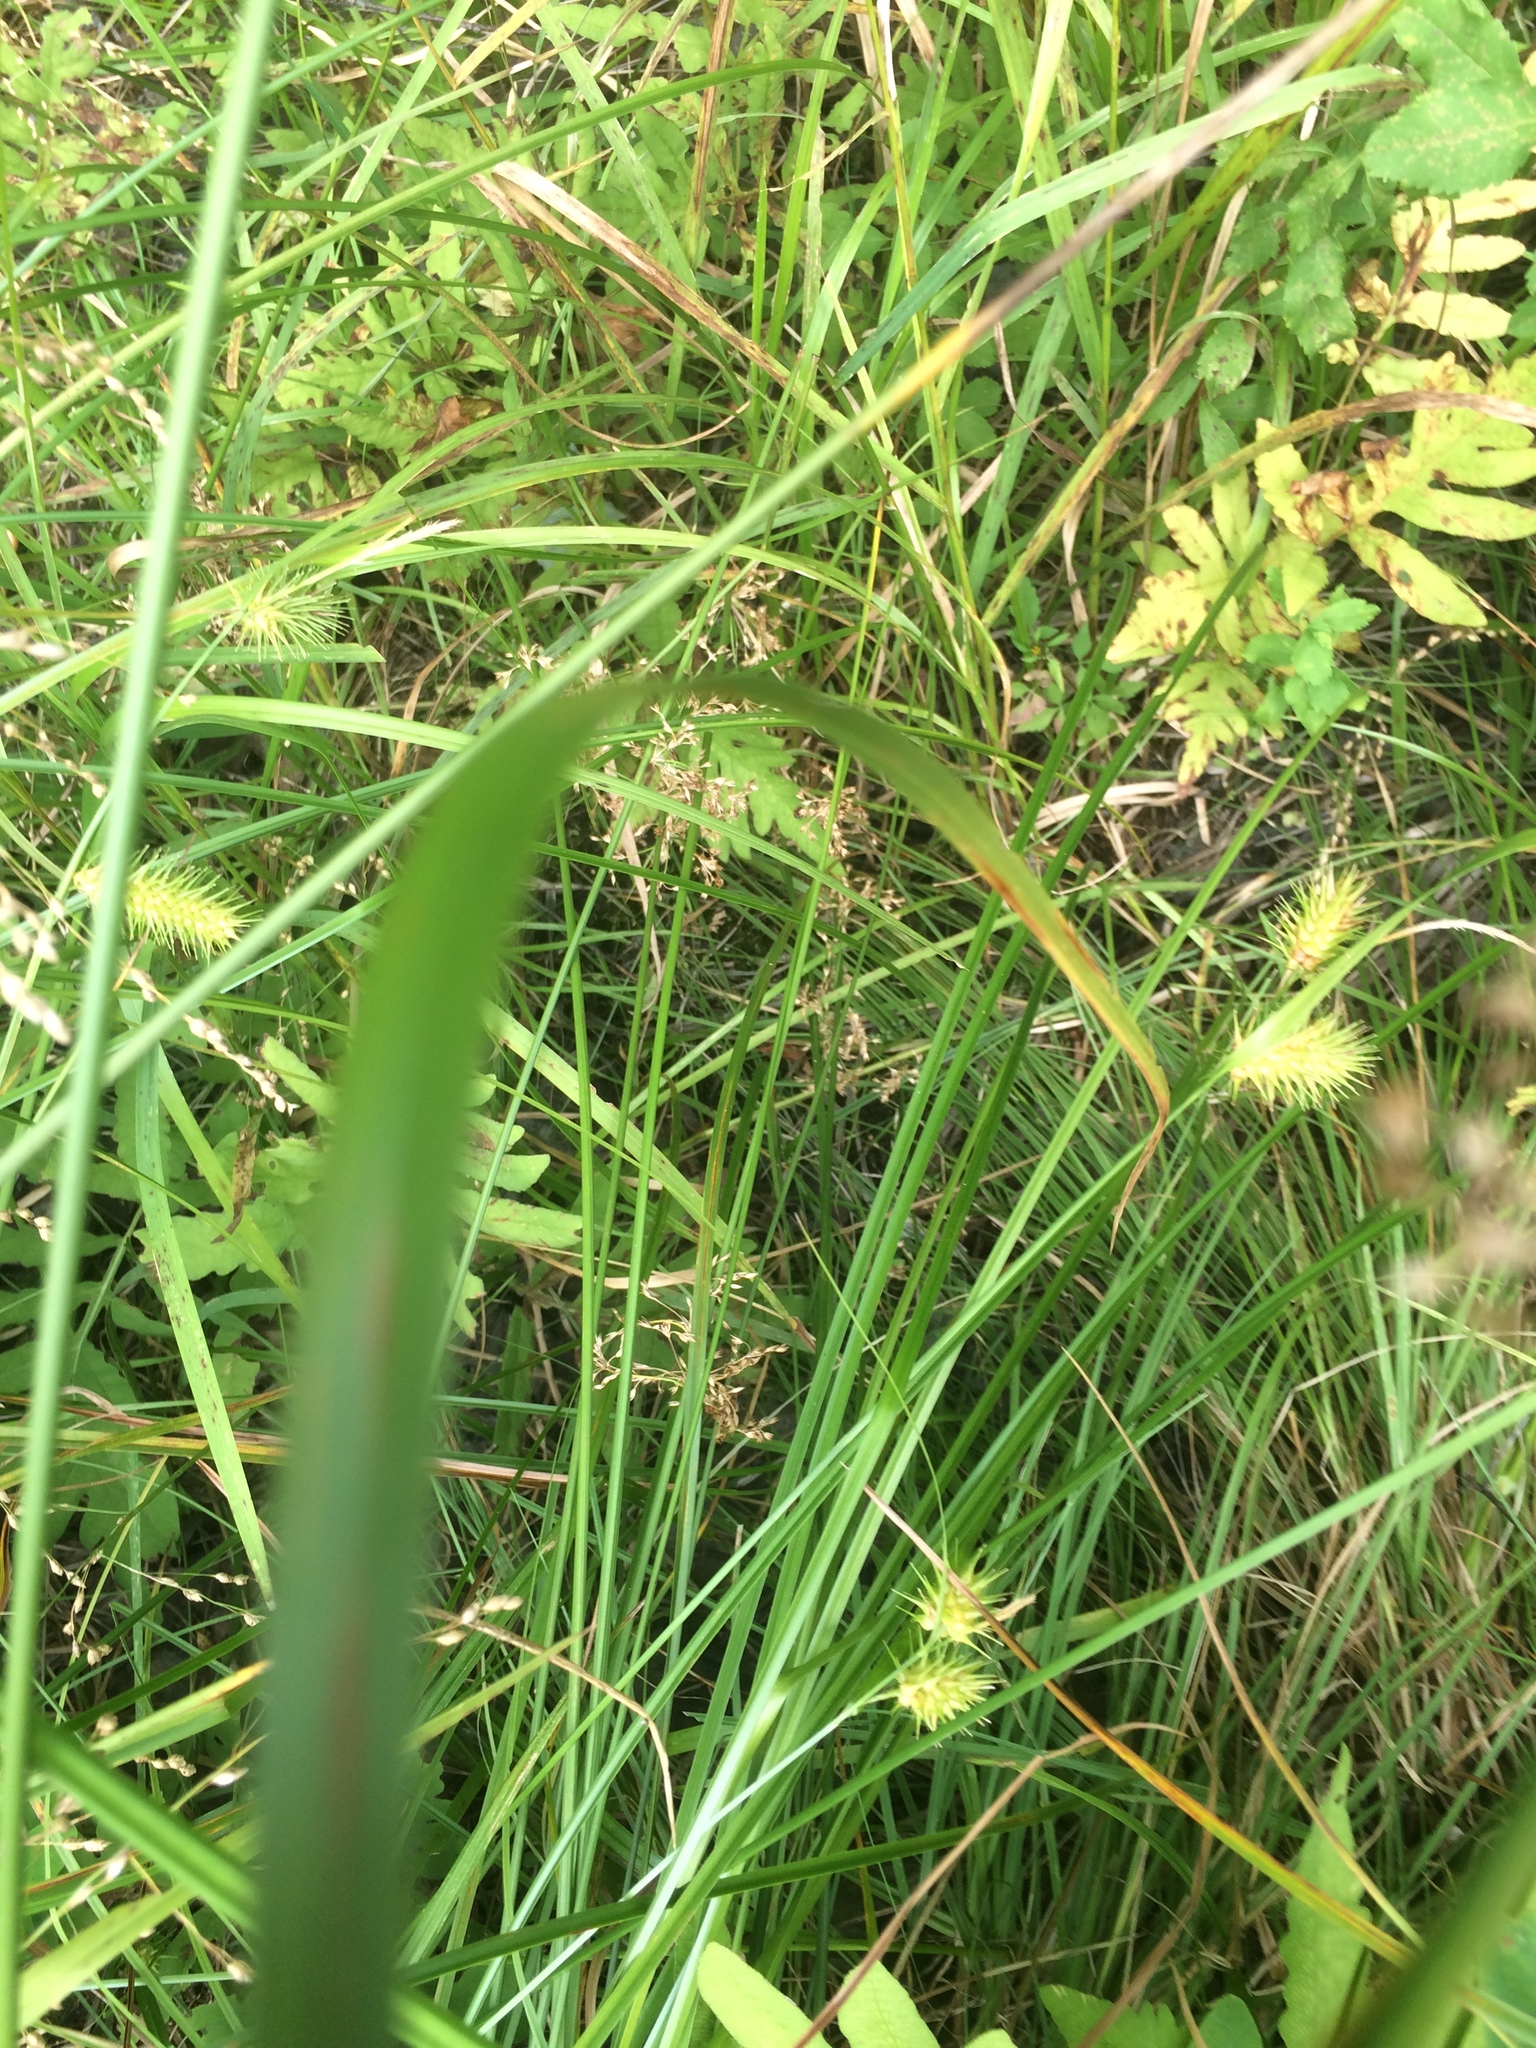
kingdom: Plantae
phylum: Tracheophyta
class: Liliopsida
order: Poales
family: Cyperaceae
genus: Carex
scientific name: Carex lurida
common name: Sallow sedge
